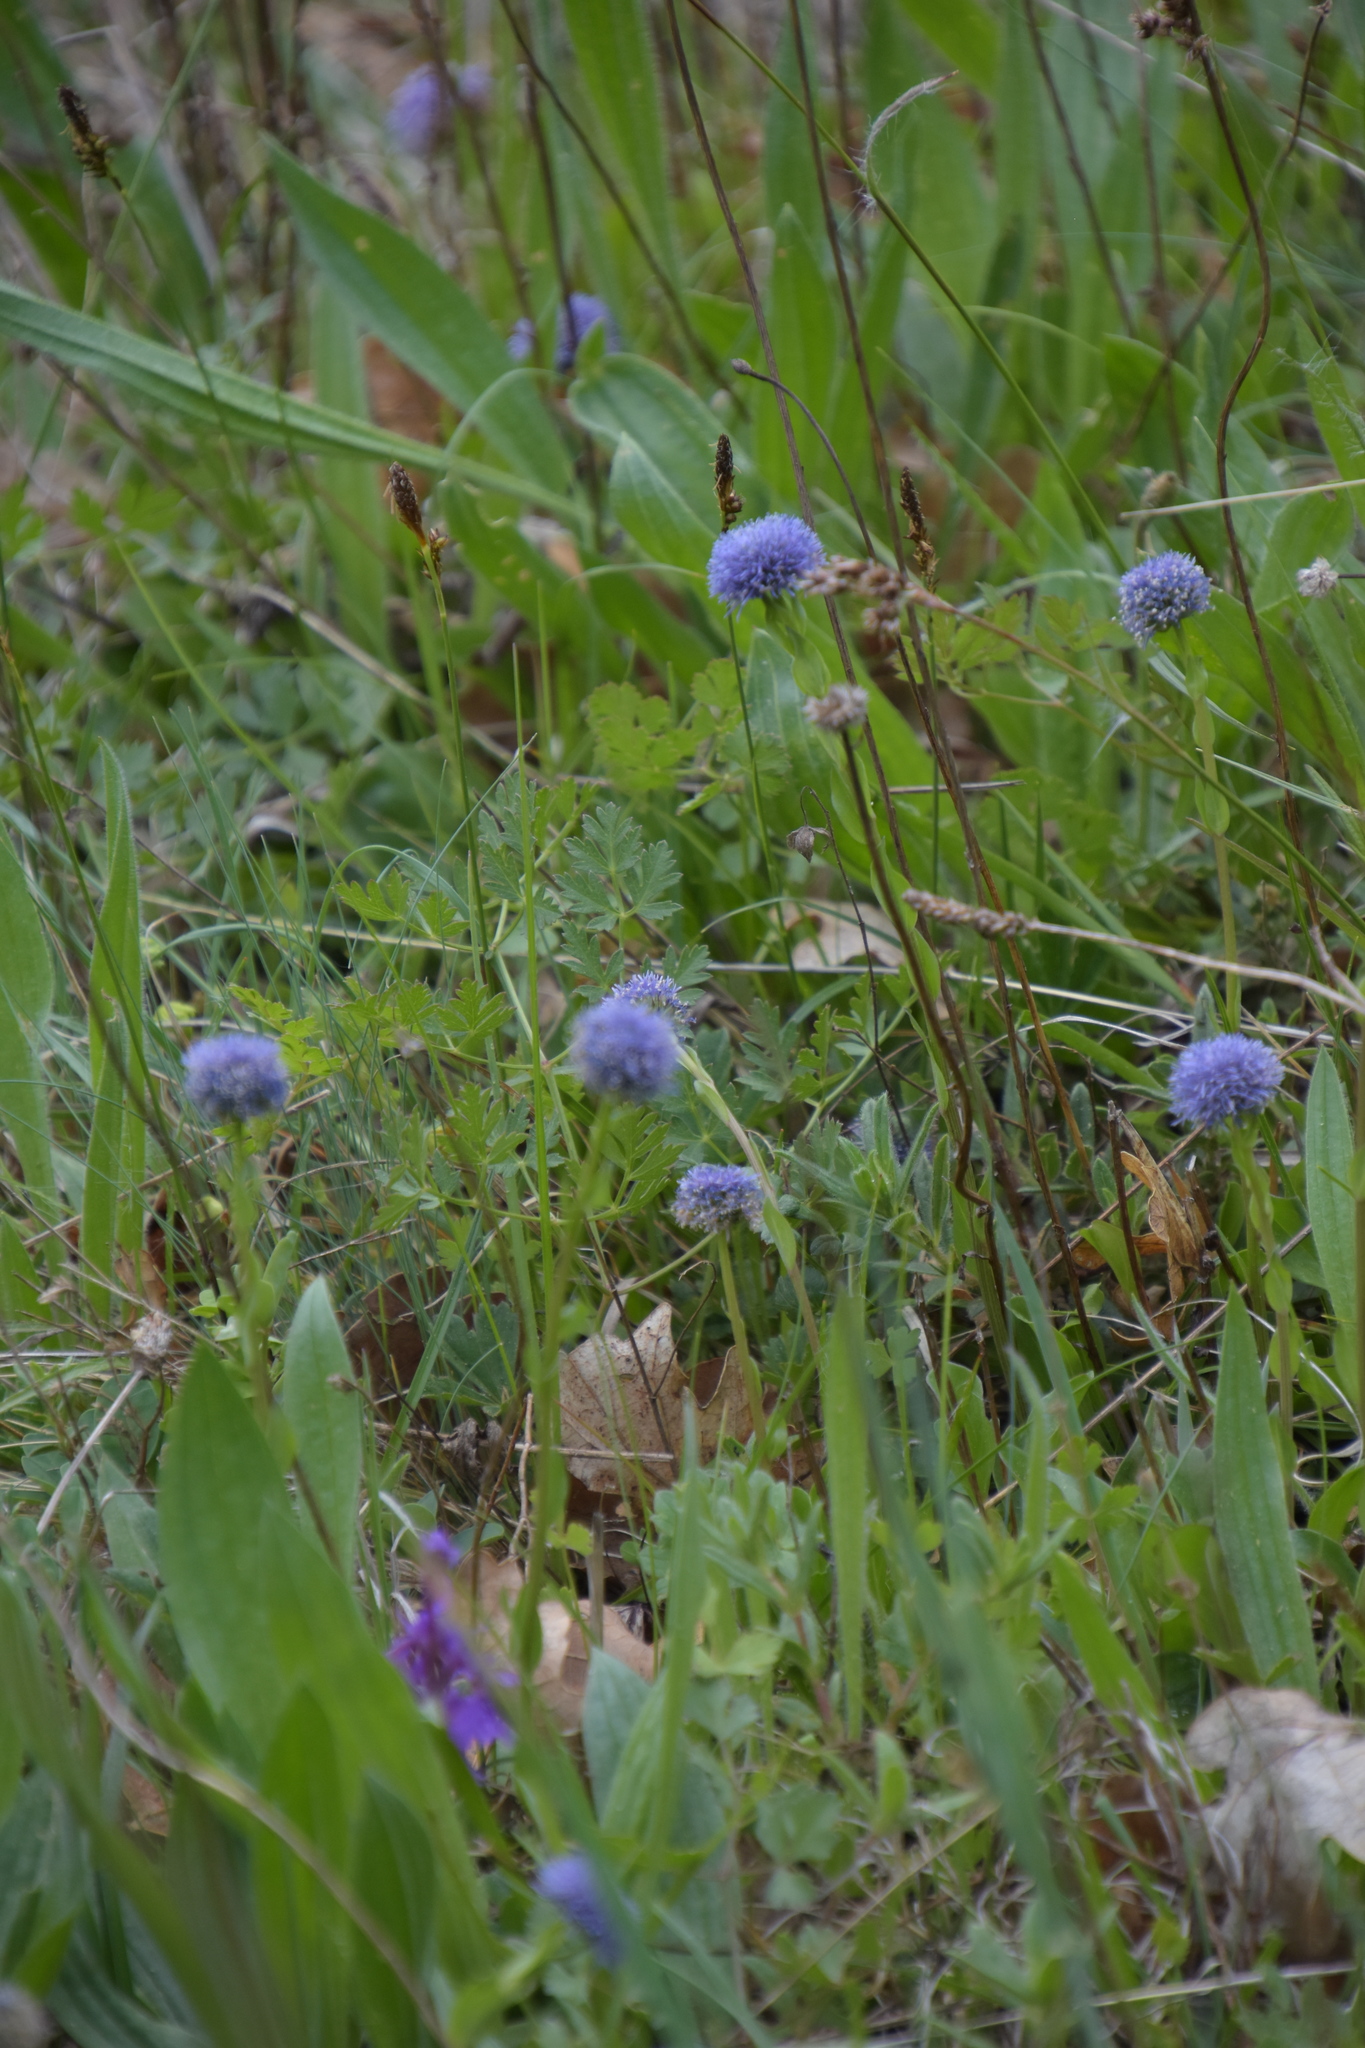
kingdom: Plantae
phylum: Tracheophyta
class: Magnoliopsida
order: Lamiales
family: Plantaginaceae
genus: Globularia
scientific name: Globularia bisnagarica
